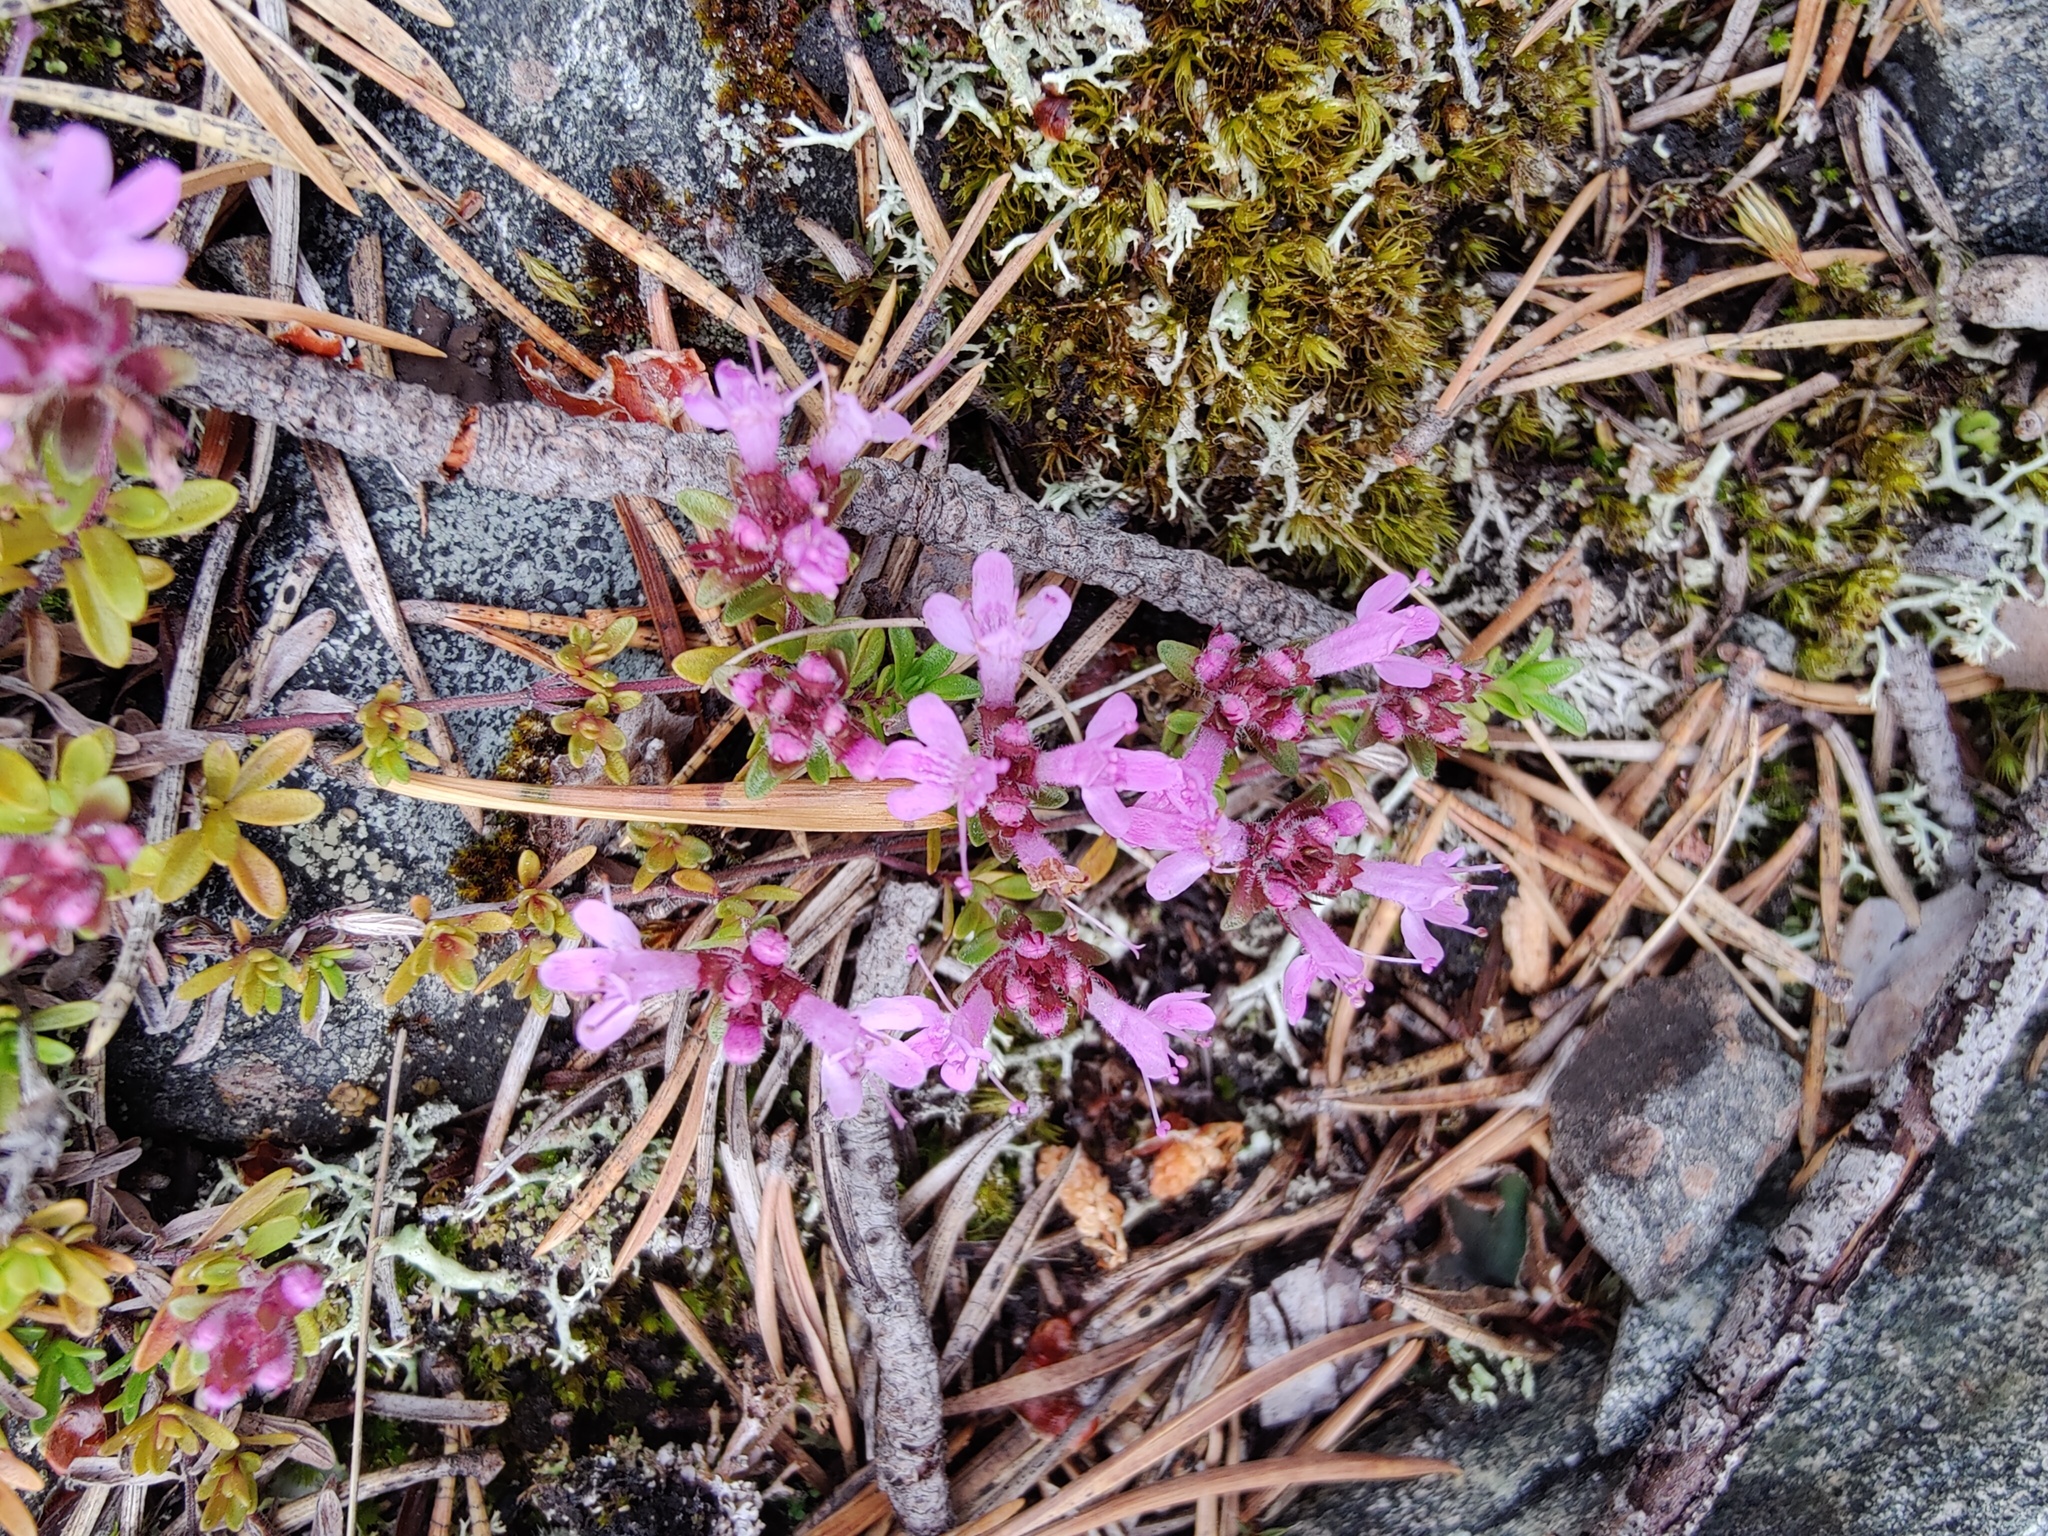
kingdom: Plantae
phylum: Tracheophyta
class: Magnoliopsida
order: Lamiales
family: Lamiaceae
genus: Thymus
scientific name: Thymus serpyllum
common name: Breckland thyme
